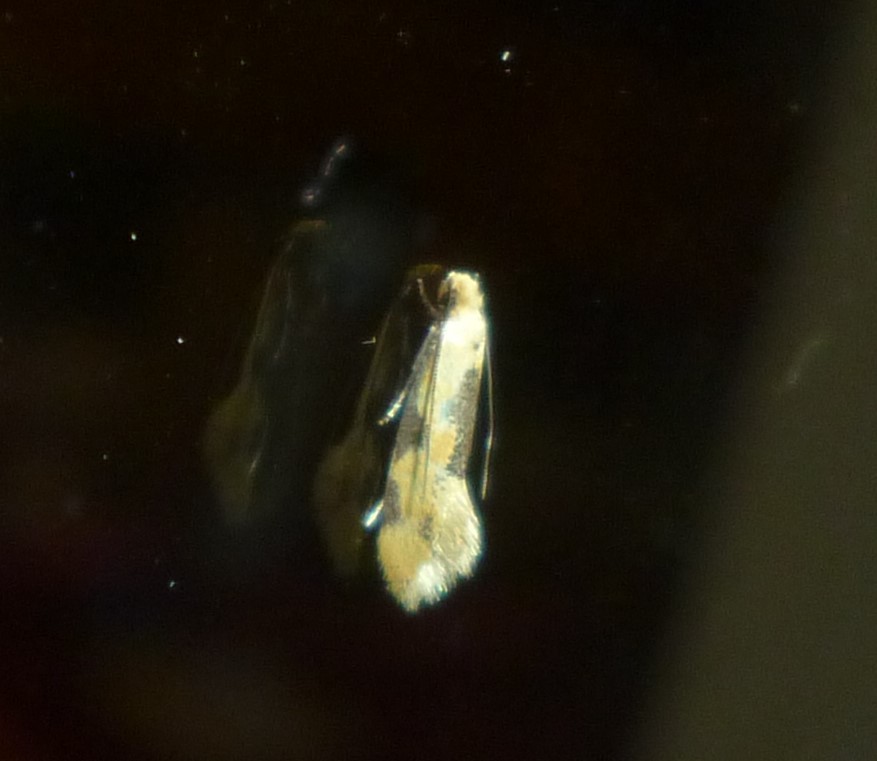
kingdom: Animalia
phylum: Arthropoda
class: Insecta
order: Lepidoptera
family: Meessiidae
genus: Hybroma
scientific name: Hybroma servulella
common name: Yellow wave moth
